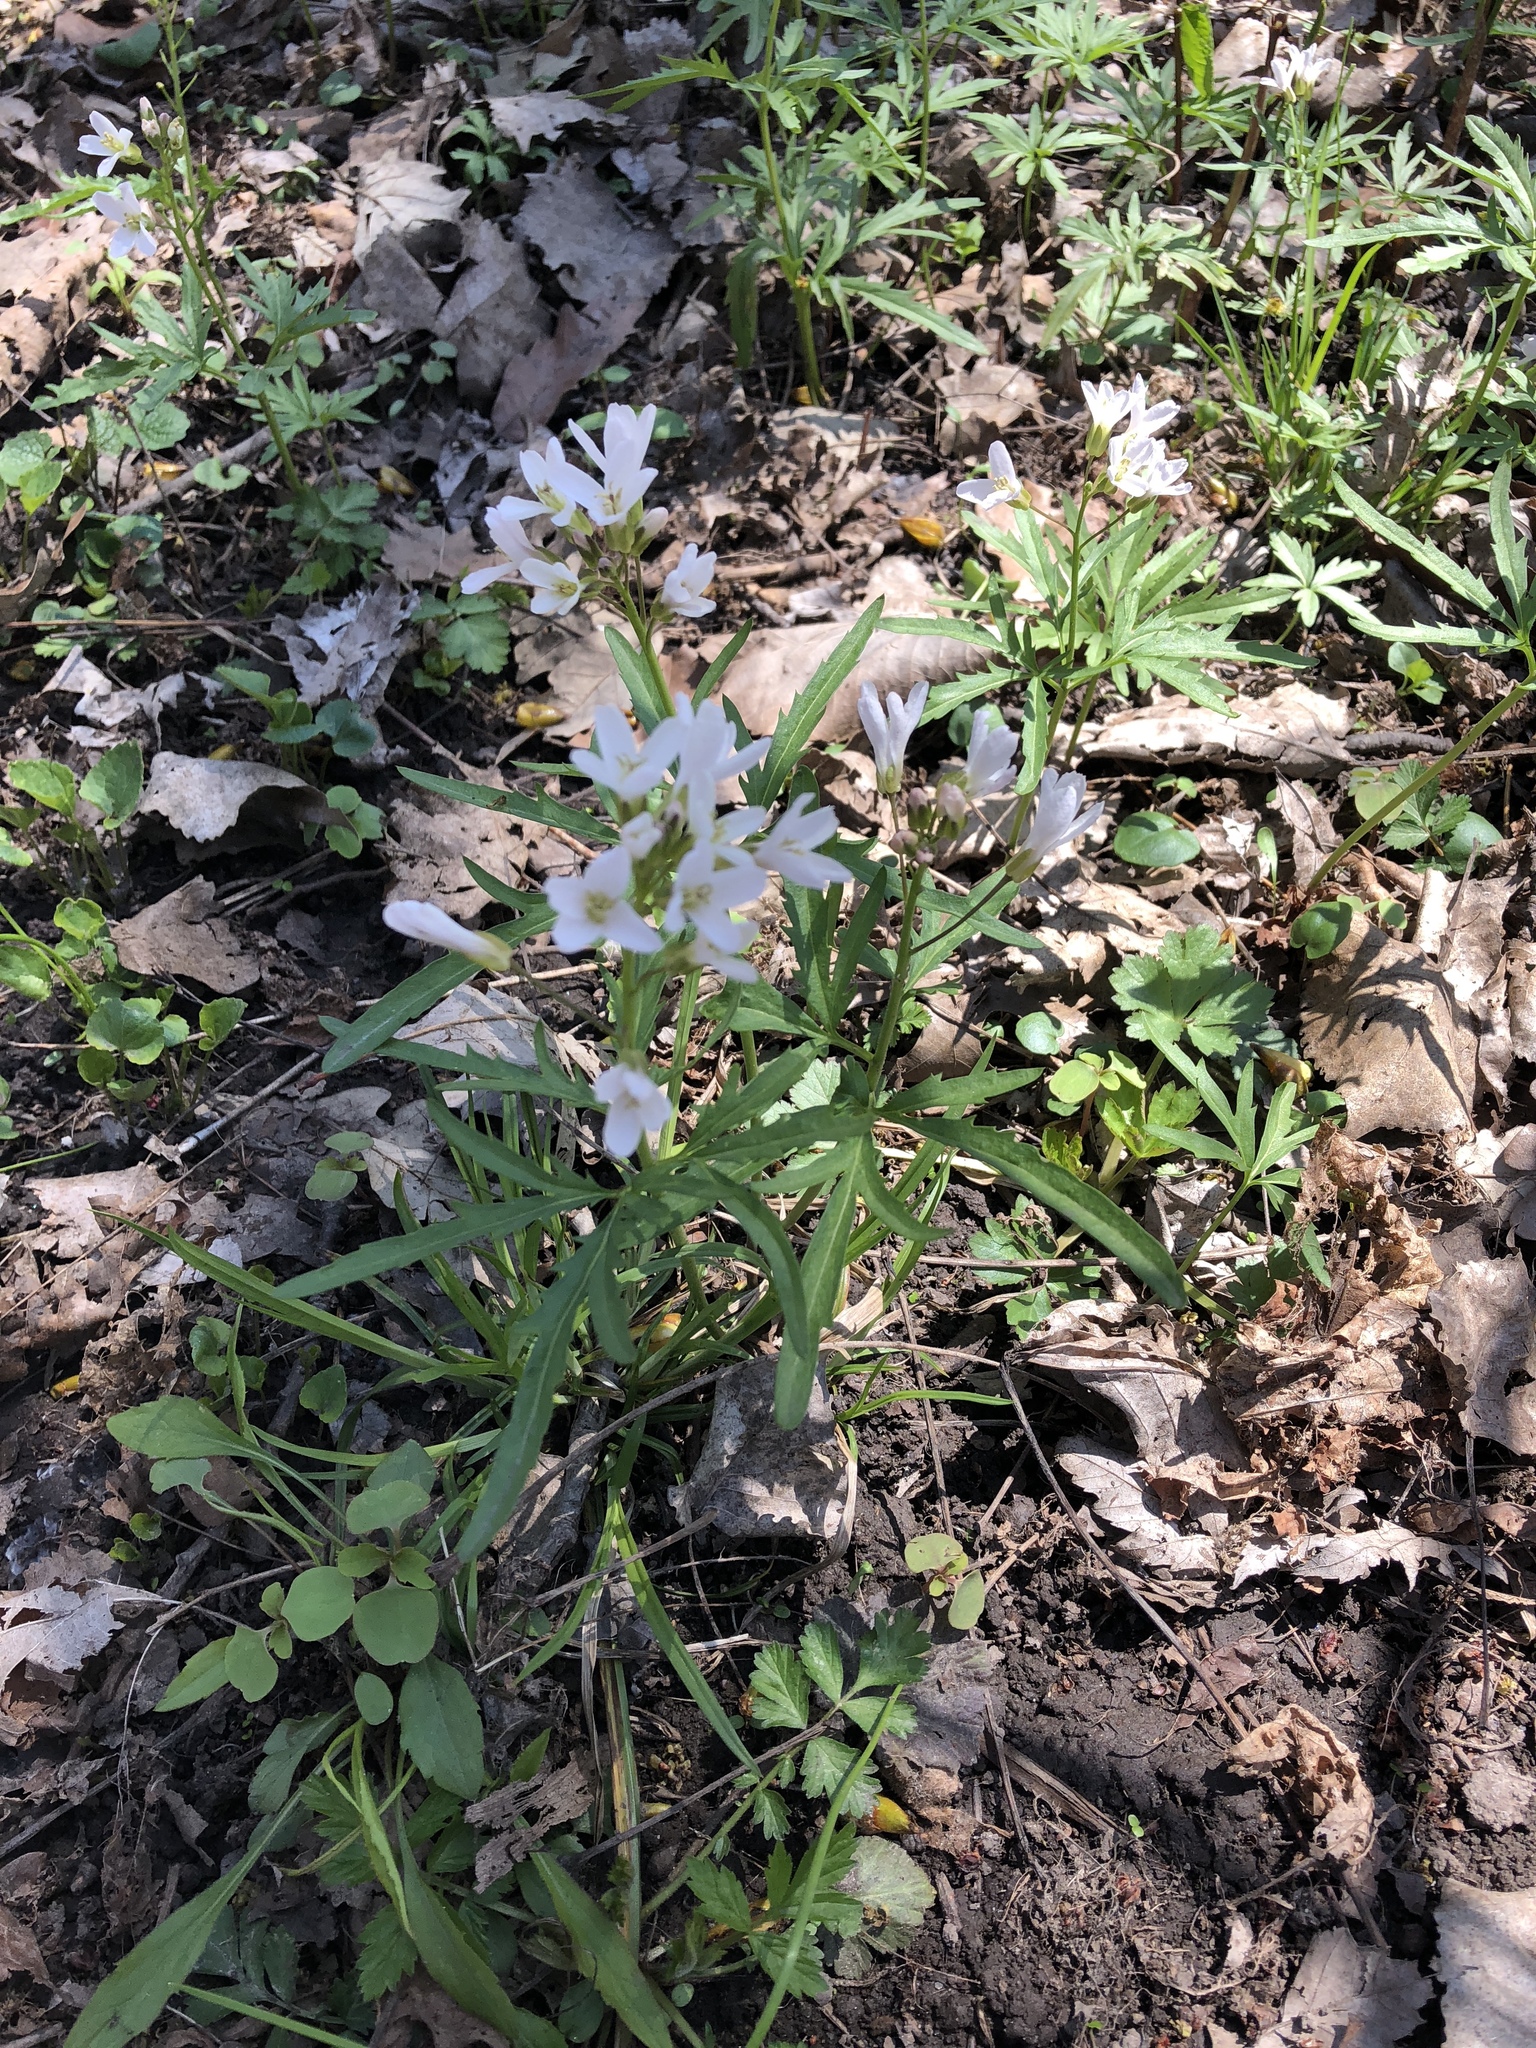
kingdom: Plantae
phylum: Tracheophyta
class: Magnoliopsida
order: Brassicales
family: Brassicaceae
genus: Cardamine
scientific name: Cardamine concatenata
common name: Cut-leaf toothcup
